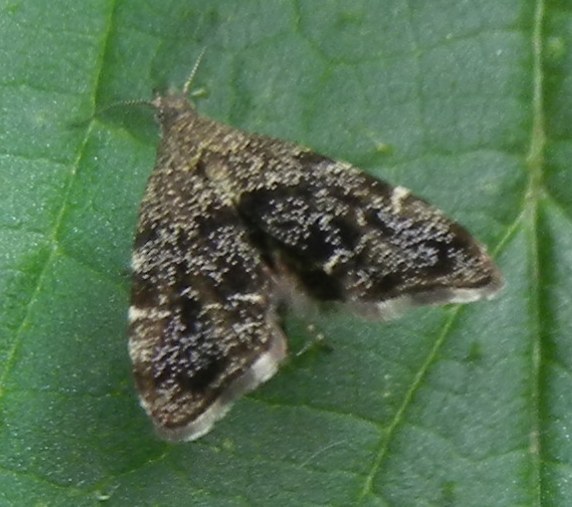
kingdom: Animalia
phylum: Arthropoda
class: Insecta
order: Lepidoptera
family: Choreutidae
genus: Anthophila
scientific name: Anthophila fabriciana
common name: Nettle-tap
